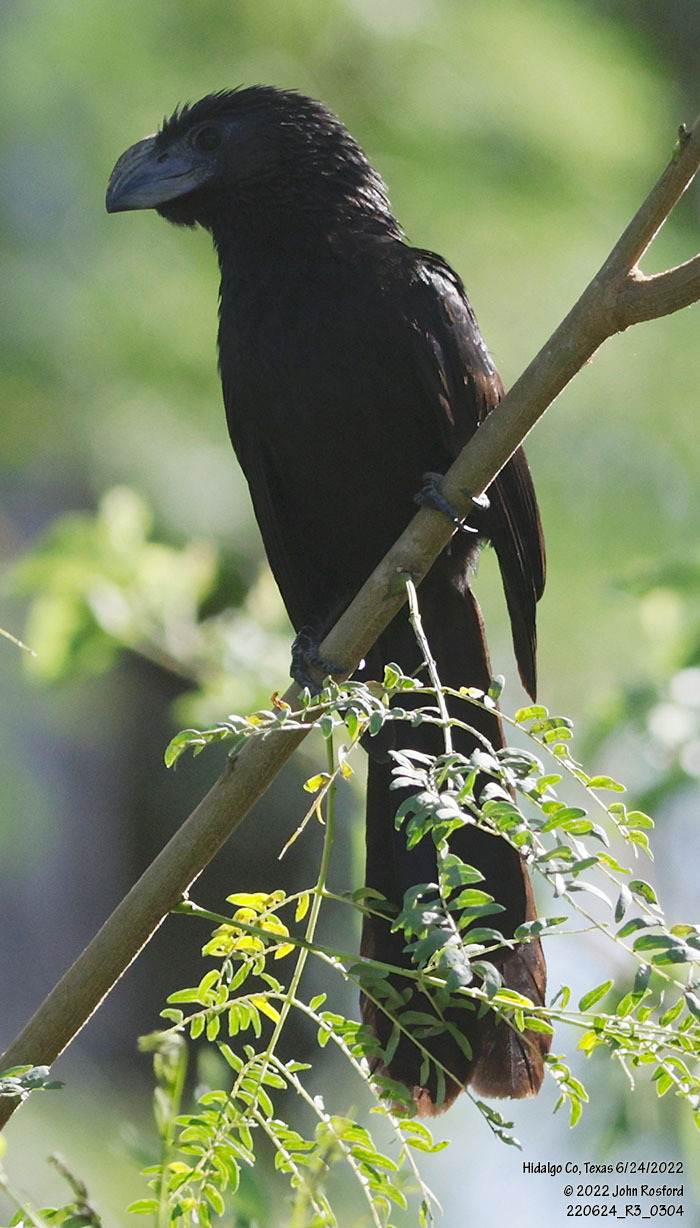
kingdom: Animalia
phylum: Chordata
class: Aves
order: Cuculiformes
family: Cuculidae
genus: Crotophaga
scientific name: Crotophaga sulcirostris
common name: Groove-billed ani
